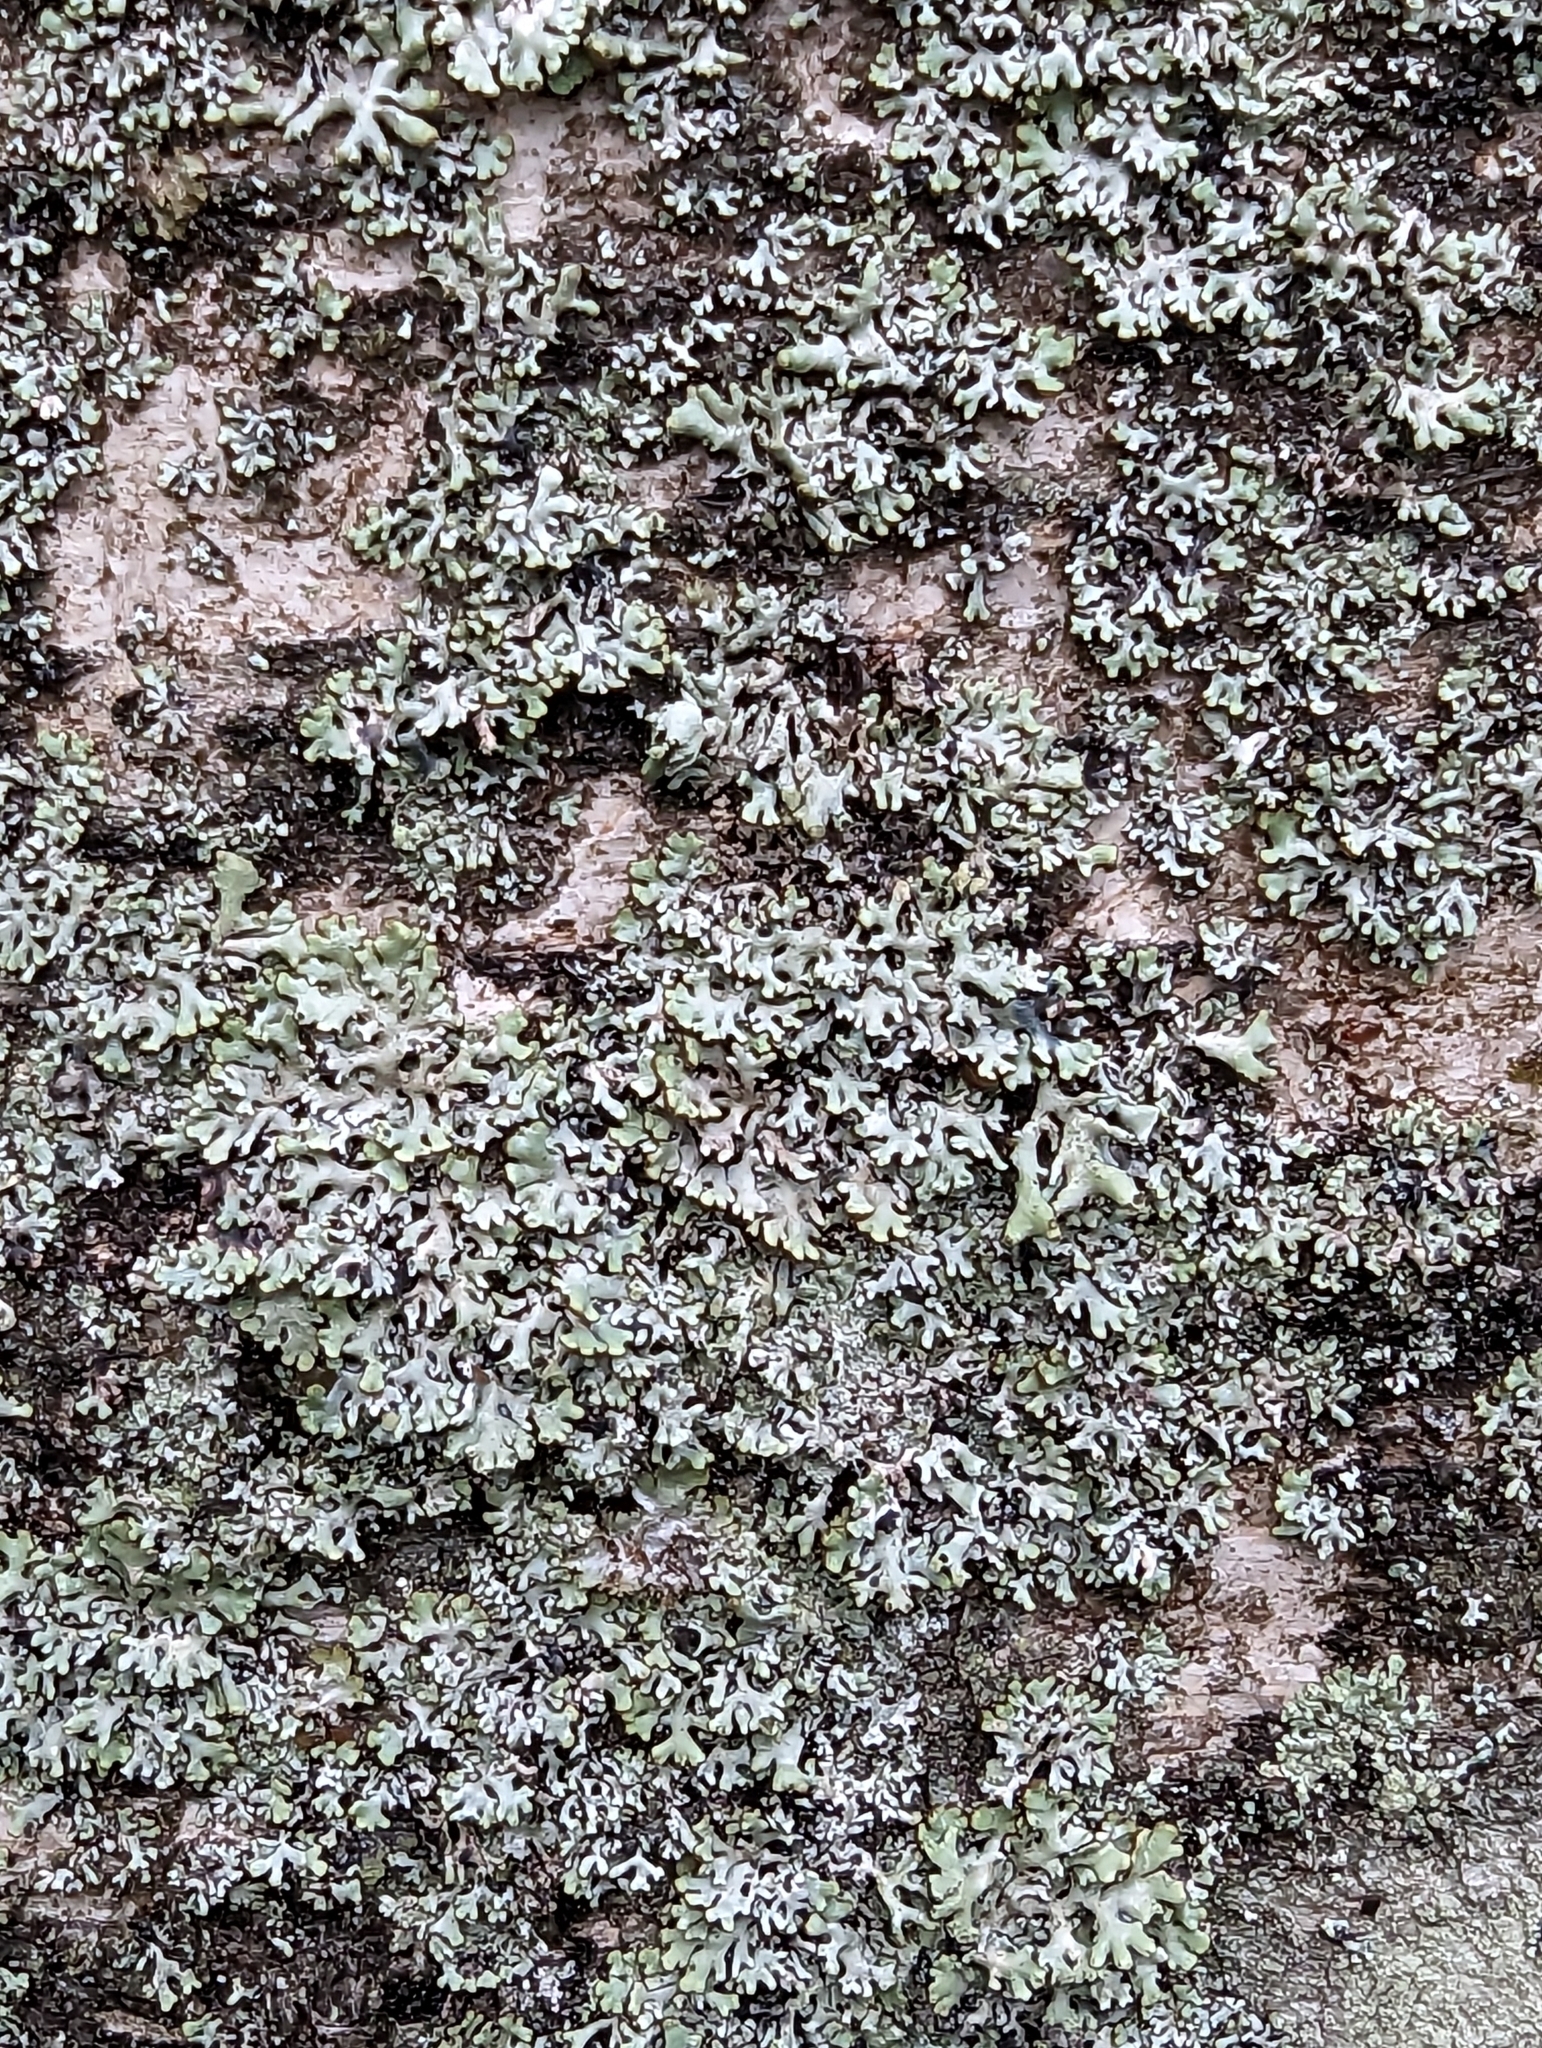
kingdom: Fungi
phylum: Ascomycota
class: Lecanoromycetes
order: Lecanorales
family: Parmeliaceae
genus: Hypogymnia
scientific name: Hypogymnia physodes
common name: Dark crottle
